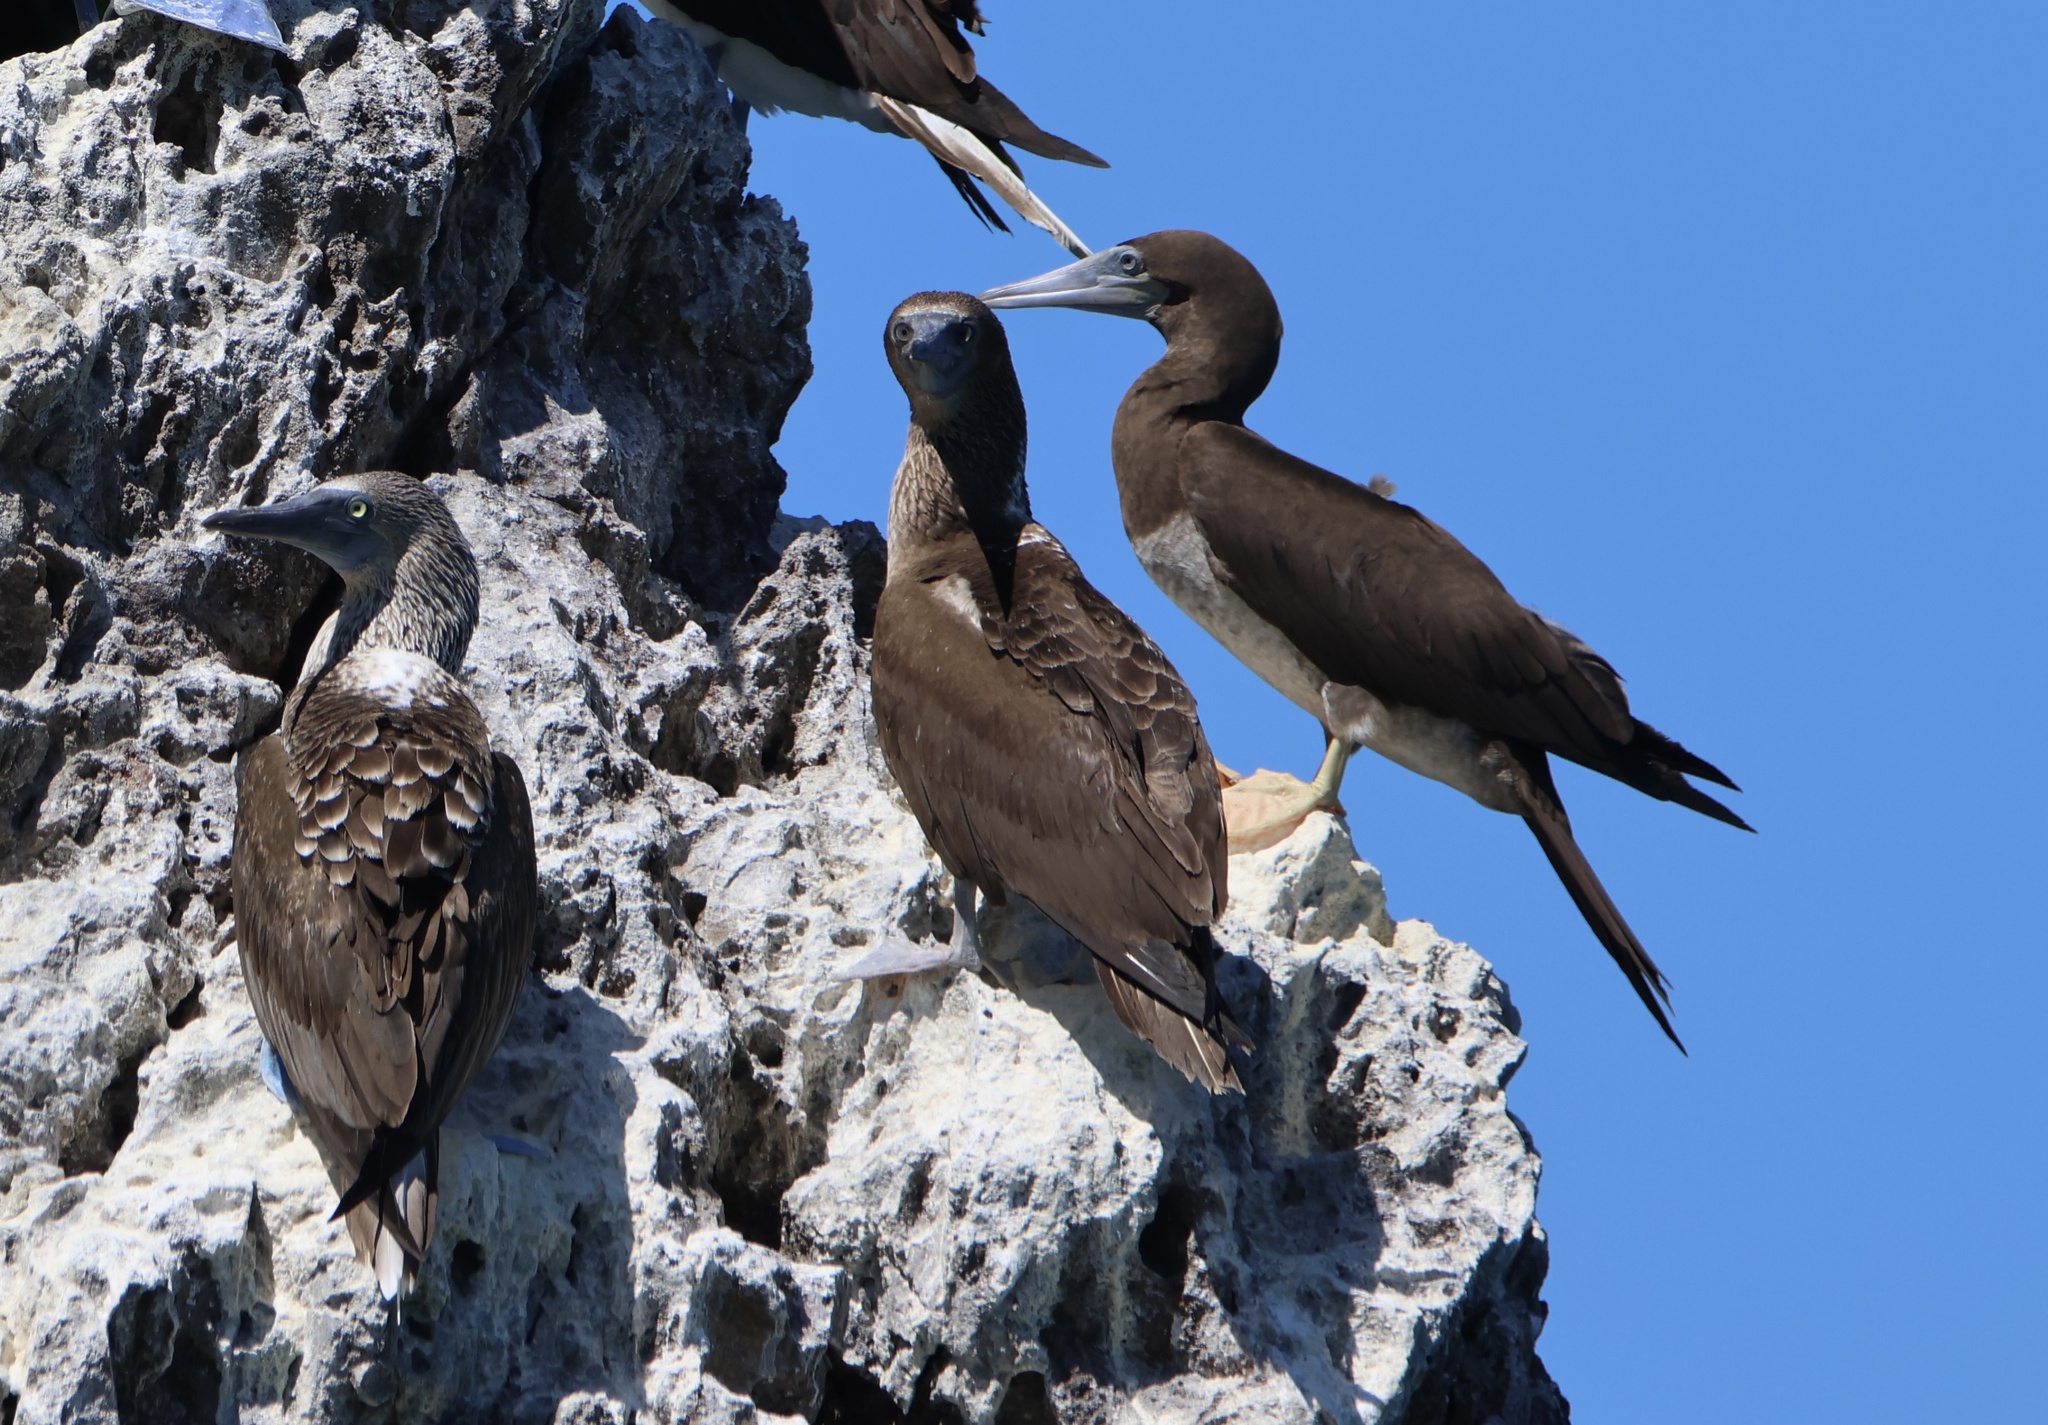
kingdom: Animalia
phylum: Chordata
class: Aves
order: Suliformes
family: Sulidae
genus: Sula
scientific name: Sula leucogaster
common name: Brown booby
